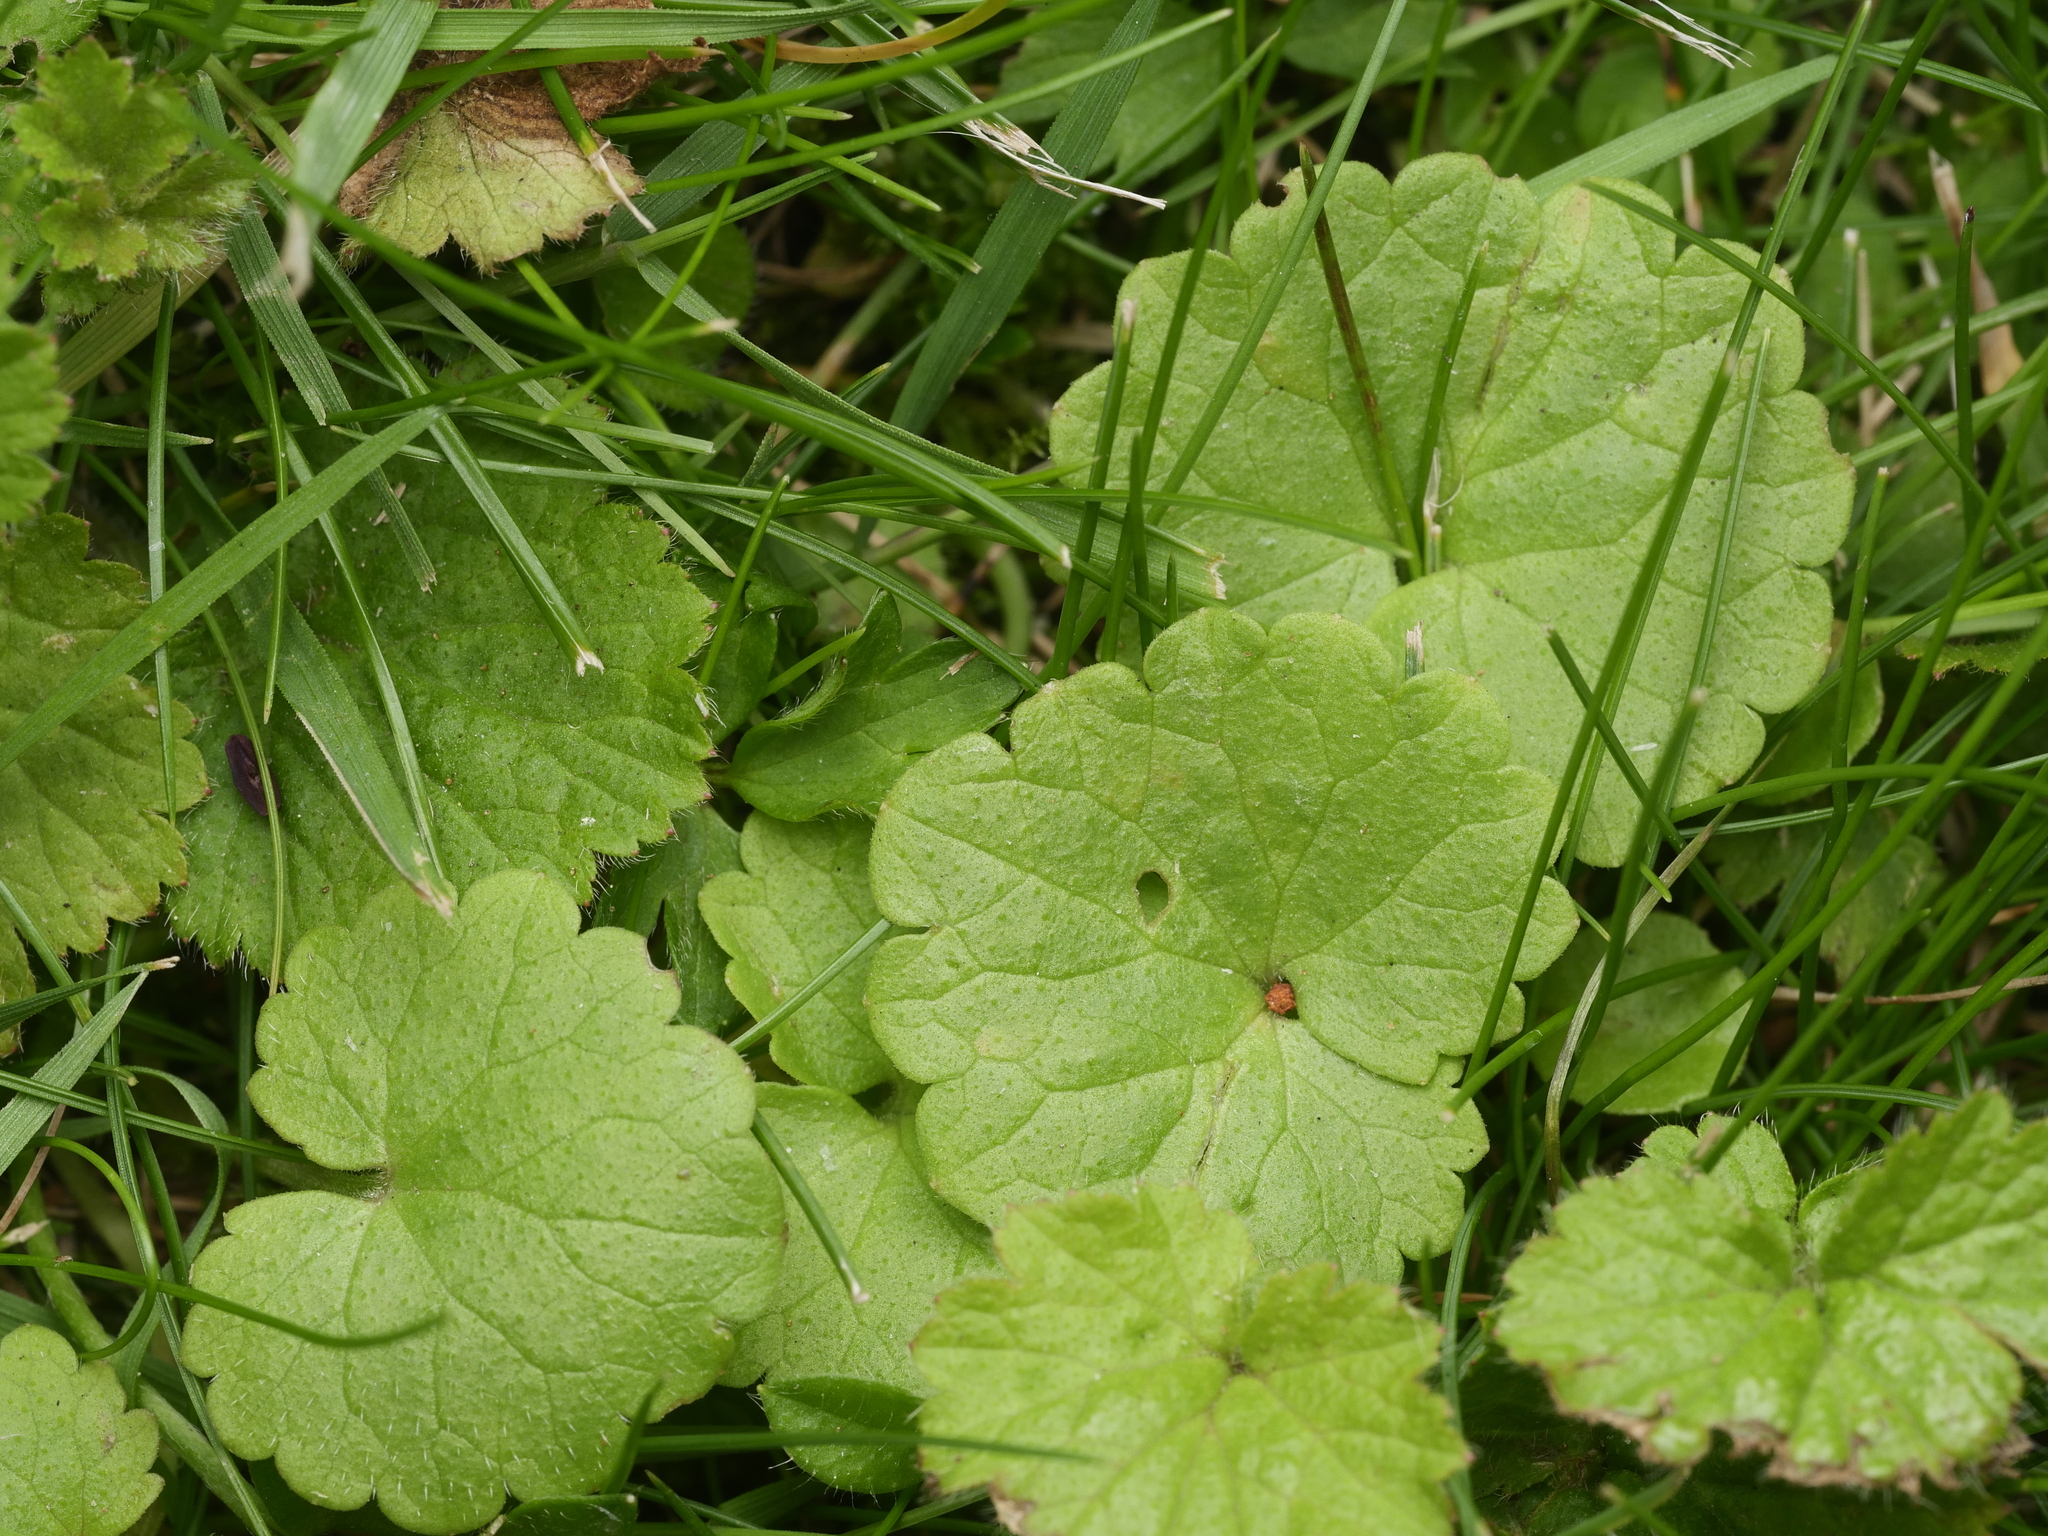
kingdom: Plantae
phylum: Tracheophyta
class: Magnoliopsida
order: Lamiales
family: Lamiaceae
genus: Glechoma
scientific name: Glechoma hederacea
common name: Ground ivy
